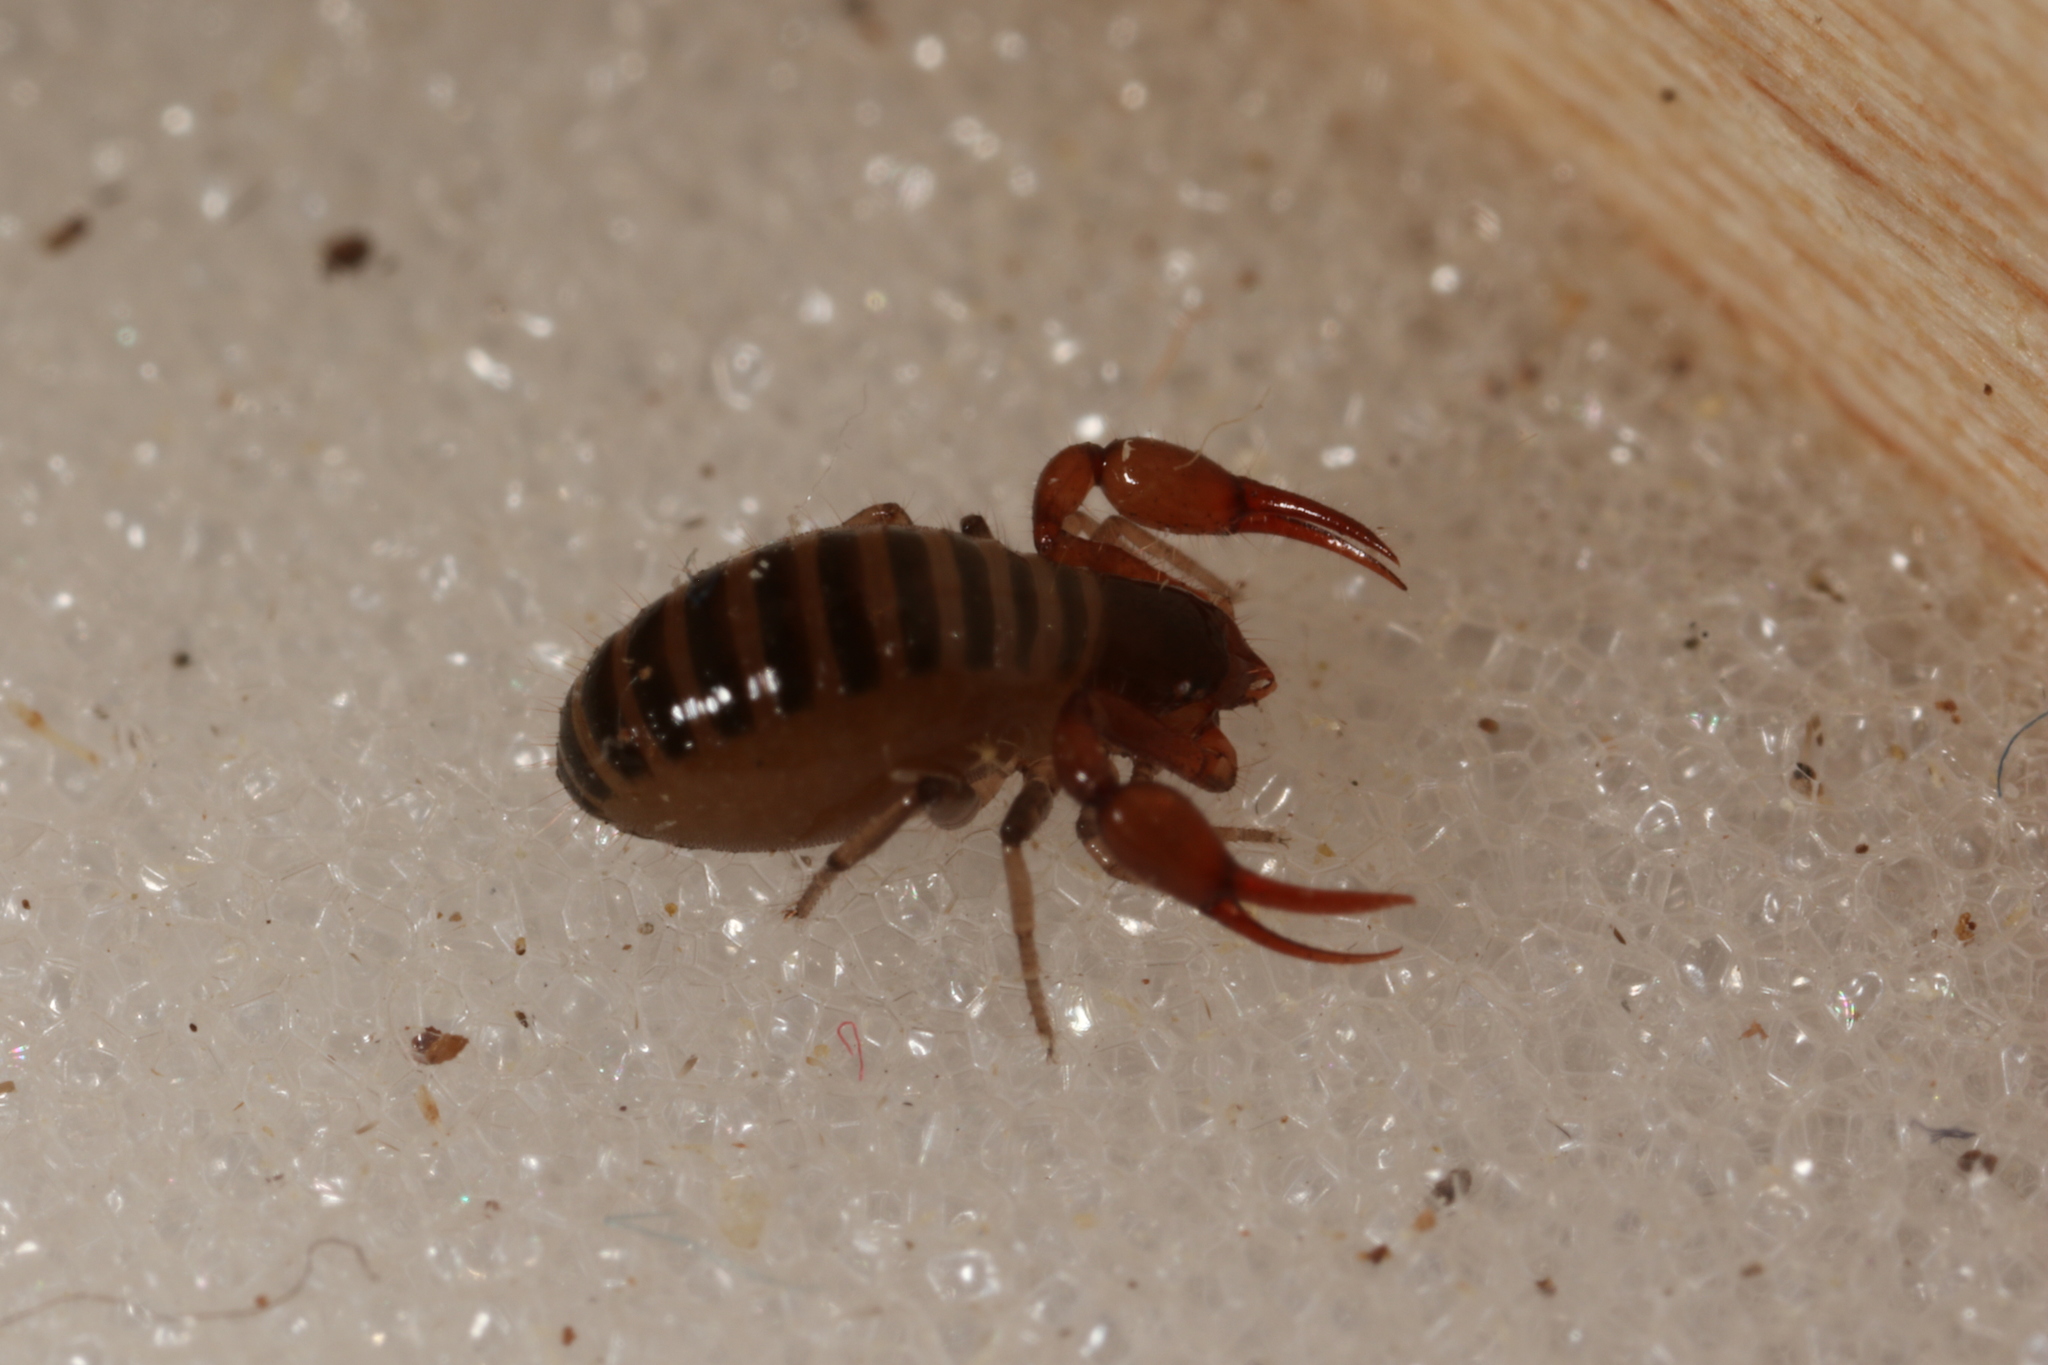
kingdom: Animalia
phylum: Arthropoda
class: Arachnida
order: Pseudoscorpiones
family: Neobisiidae
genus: Neobisium
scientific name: Neobisium carcinoides
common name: Common neobisid
